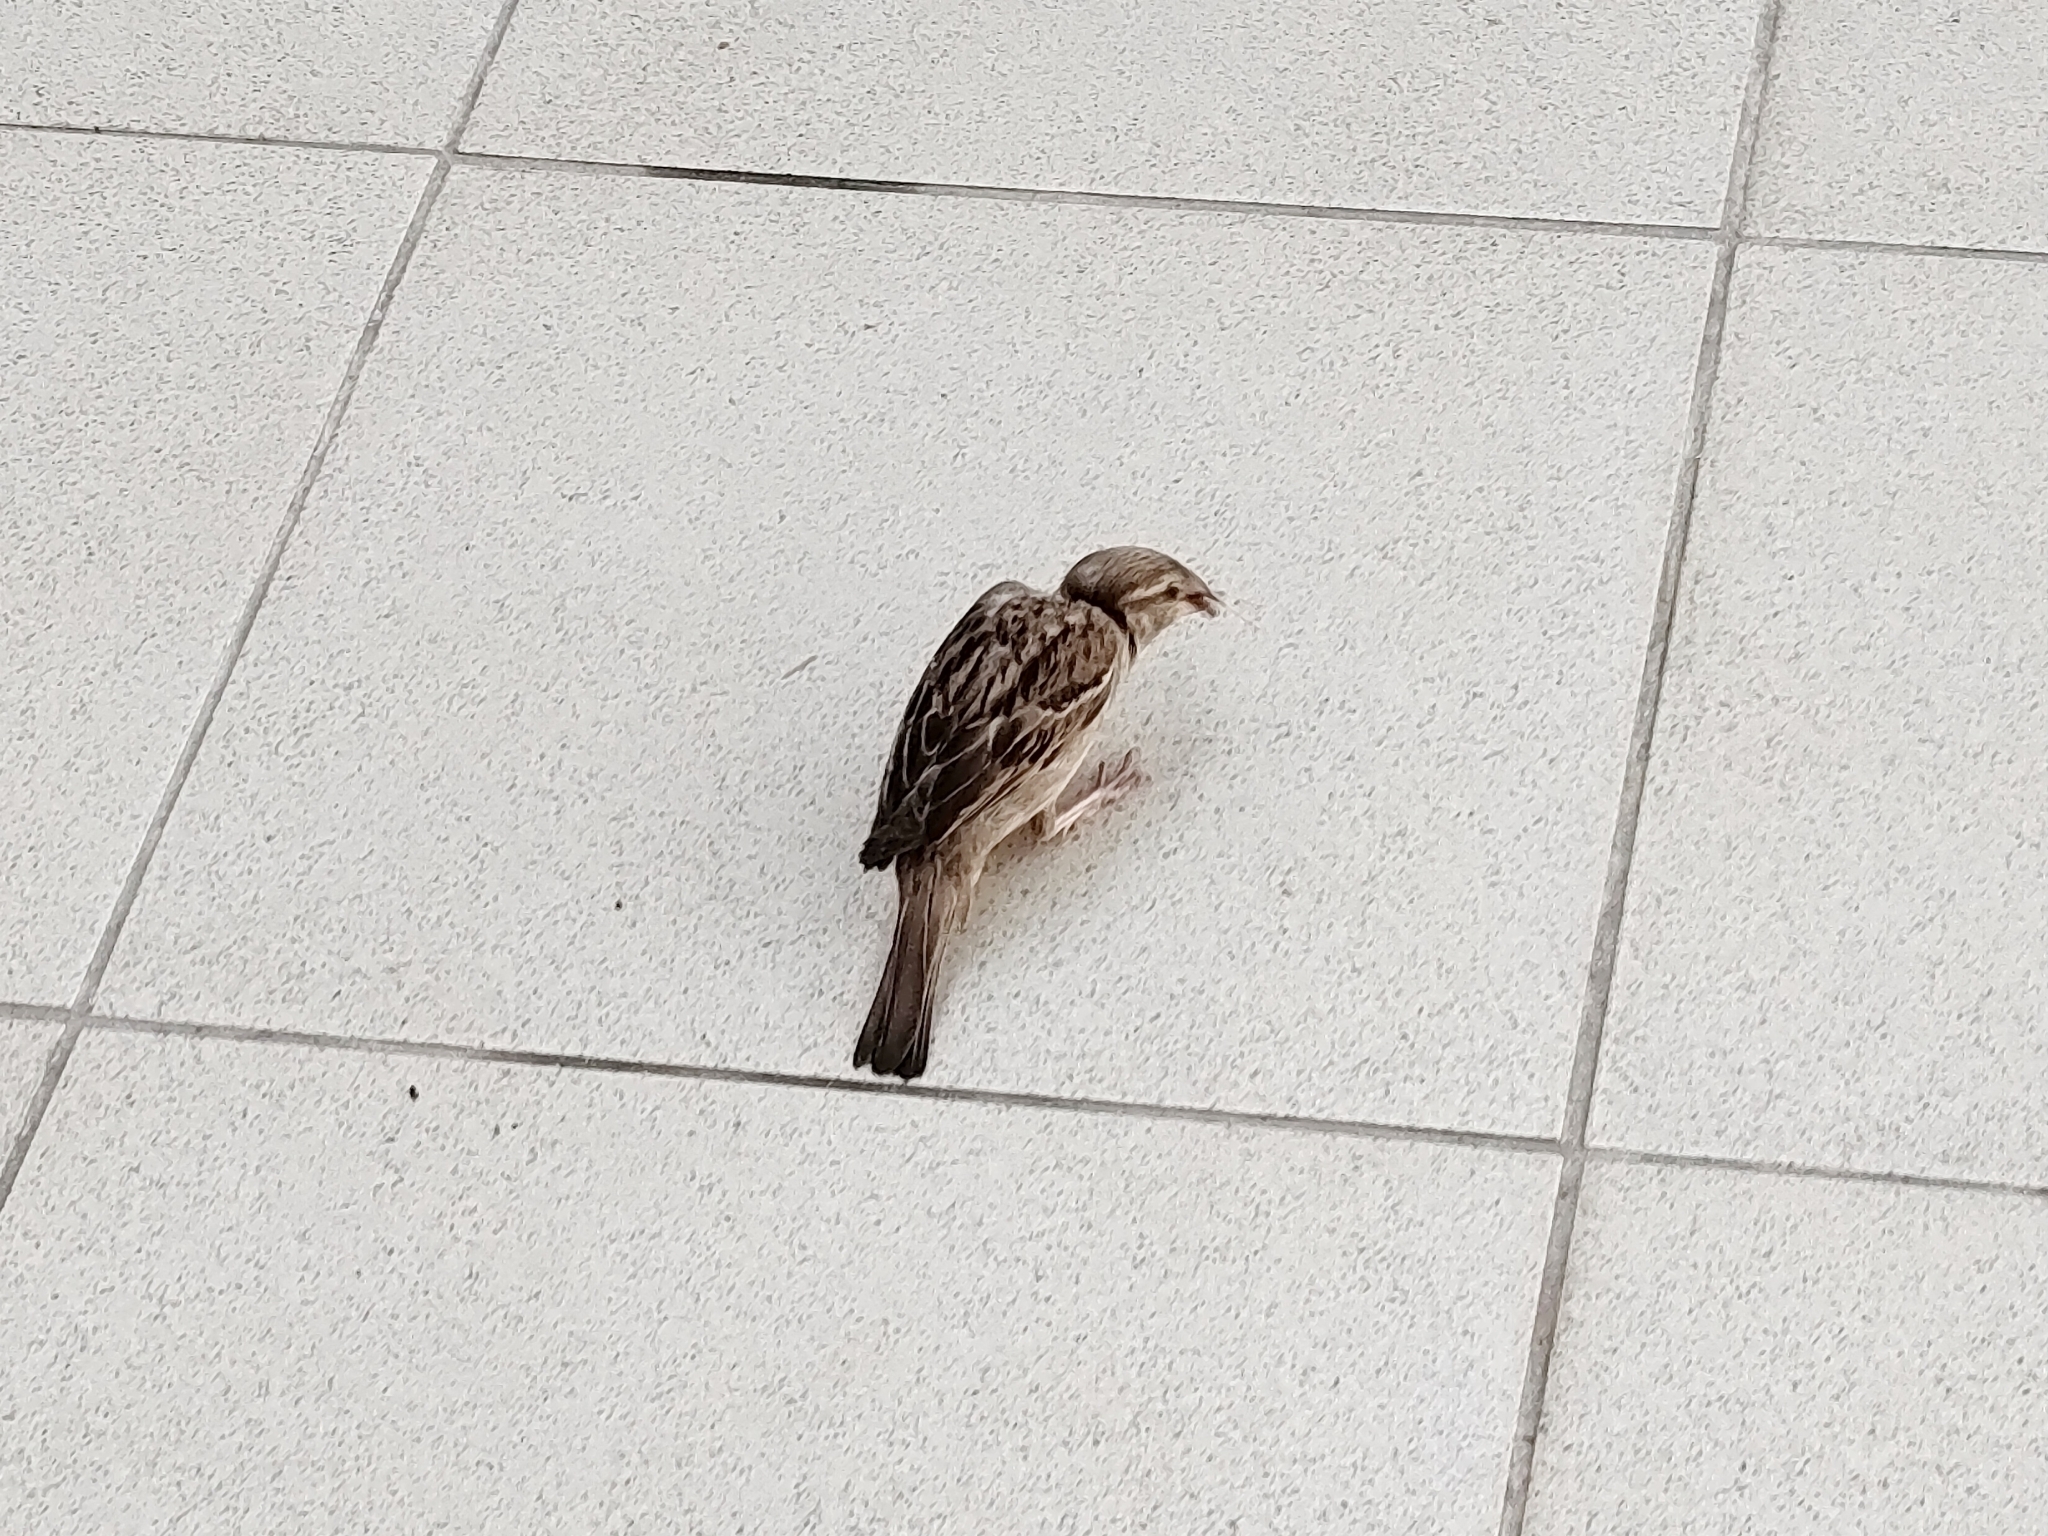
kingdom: Animalia
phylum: Chordata
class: Aves
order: Passeriformes
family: Passeridae
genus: Passer
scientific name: Passer domesticus
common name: House sparrow
